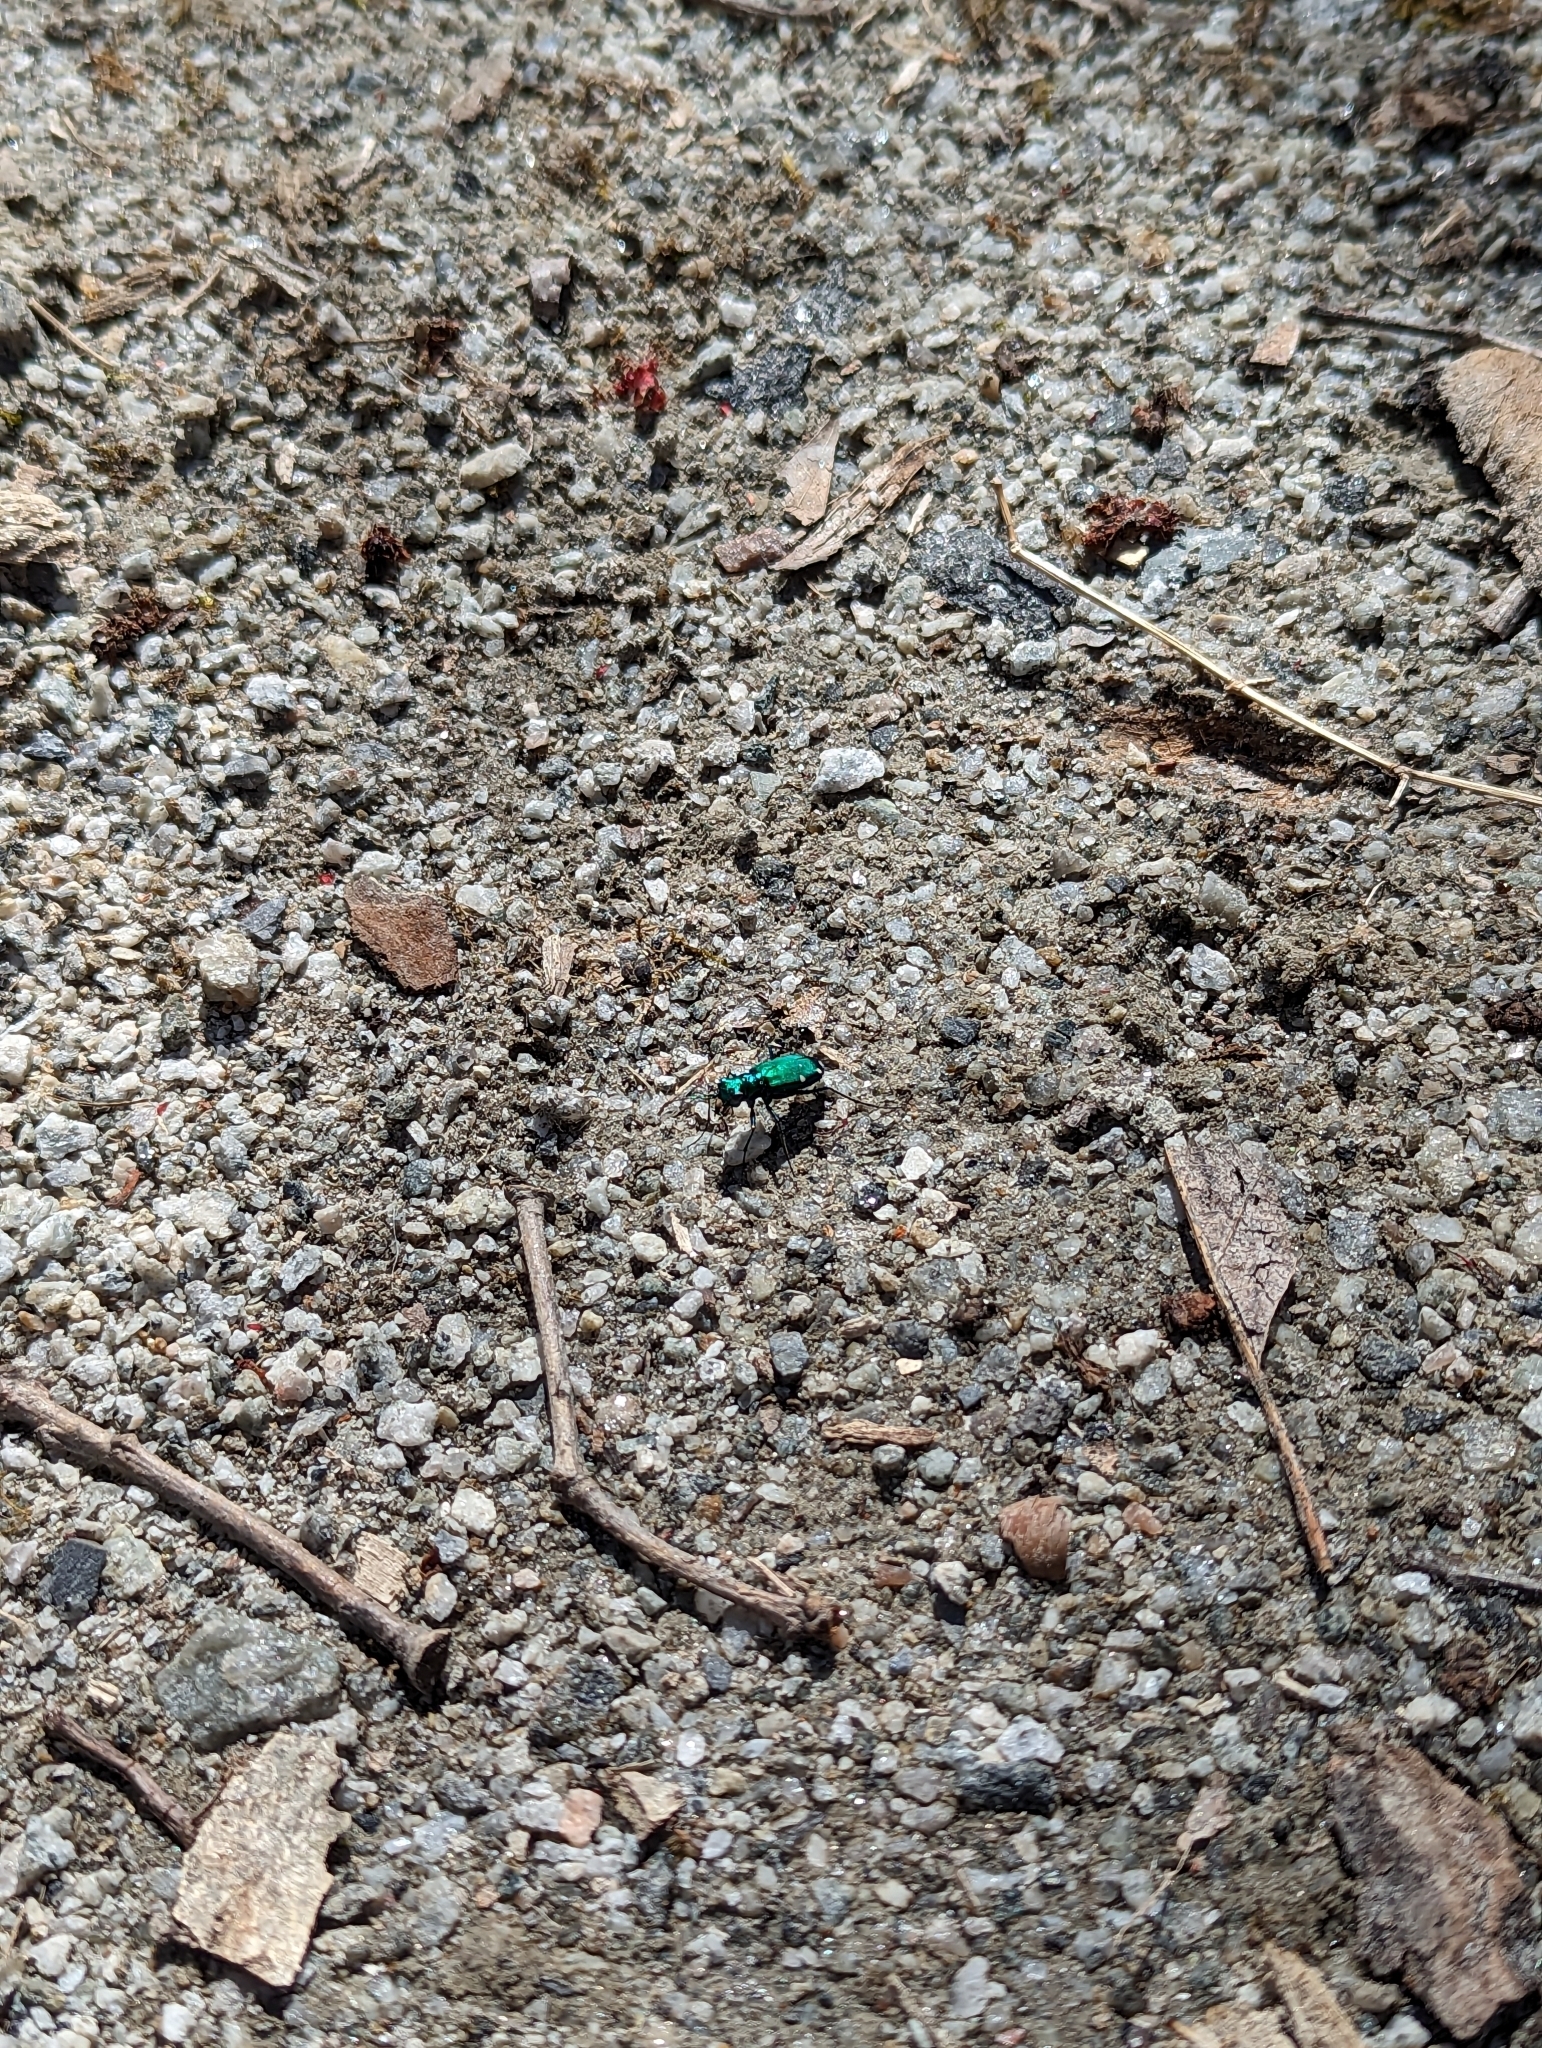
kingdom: Animalia
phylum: Arthropoda
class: Insecta
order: Coleoptera
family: Carabidae
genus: Cicindela
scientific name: Cicindela sexguttata
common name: Six-spotted tiger beetle
